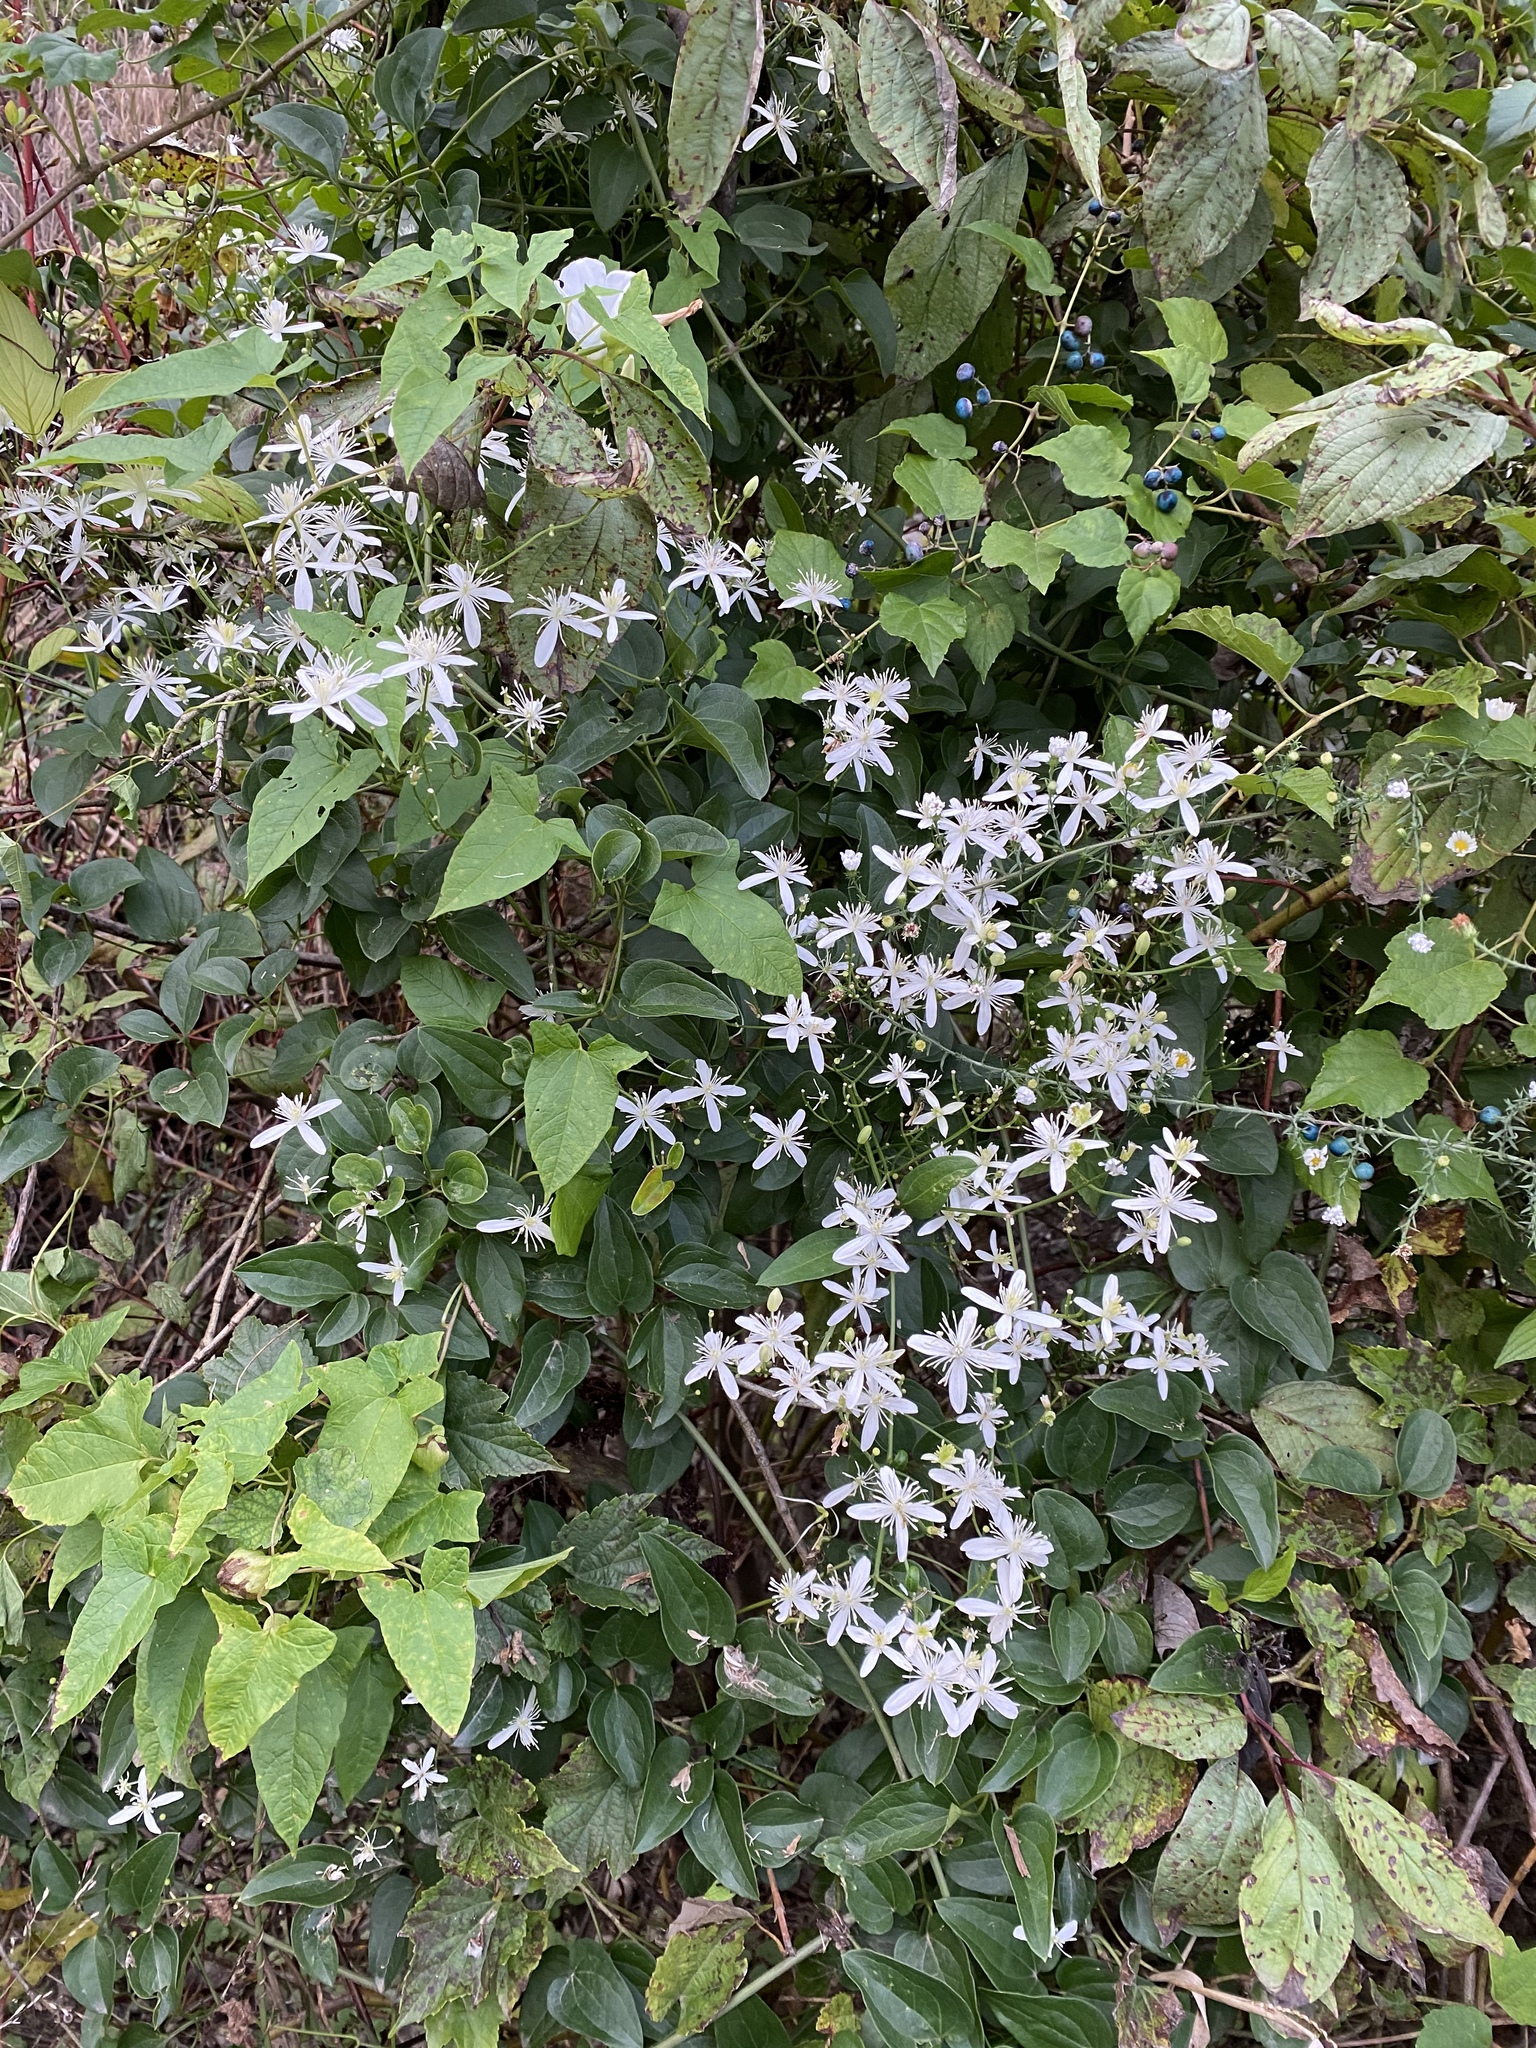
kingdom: Plantae
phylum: Tracheophyta
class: Magnoliopsida
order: Ranunculales
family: Ranunculaceae
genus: Clematis
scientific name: Clematis terniflora
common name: Sweet autumn clematis
